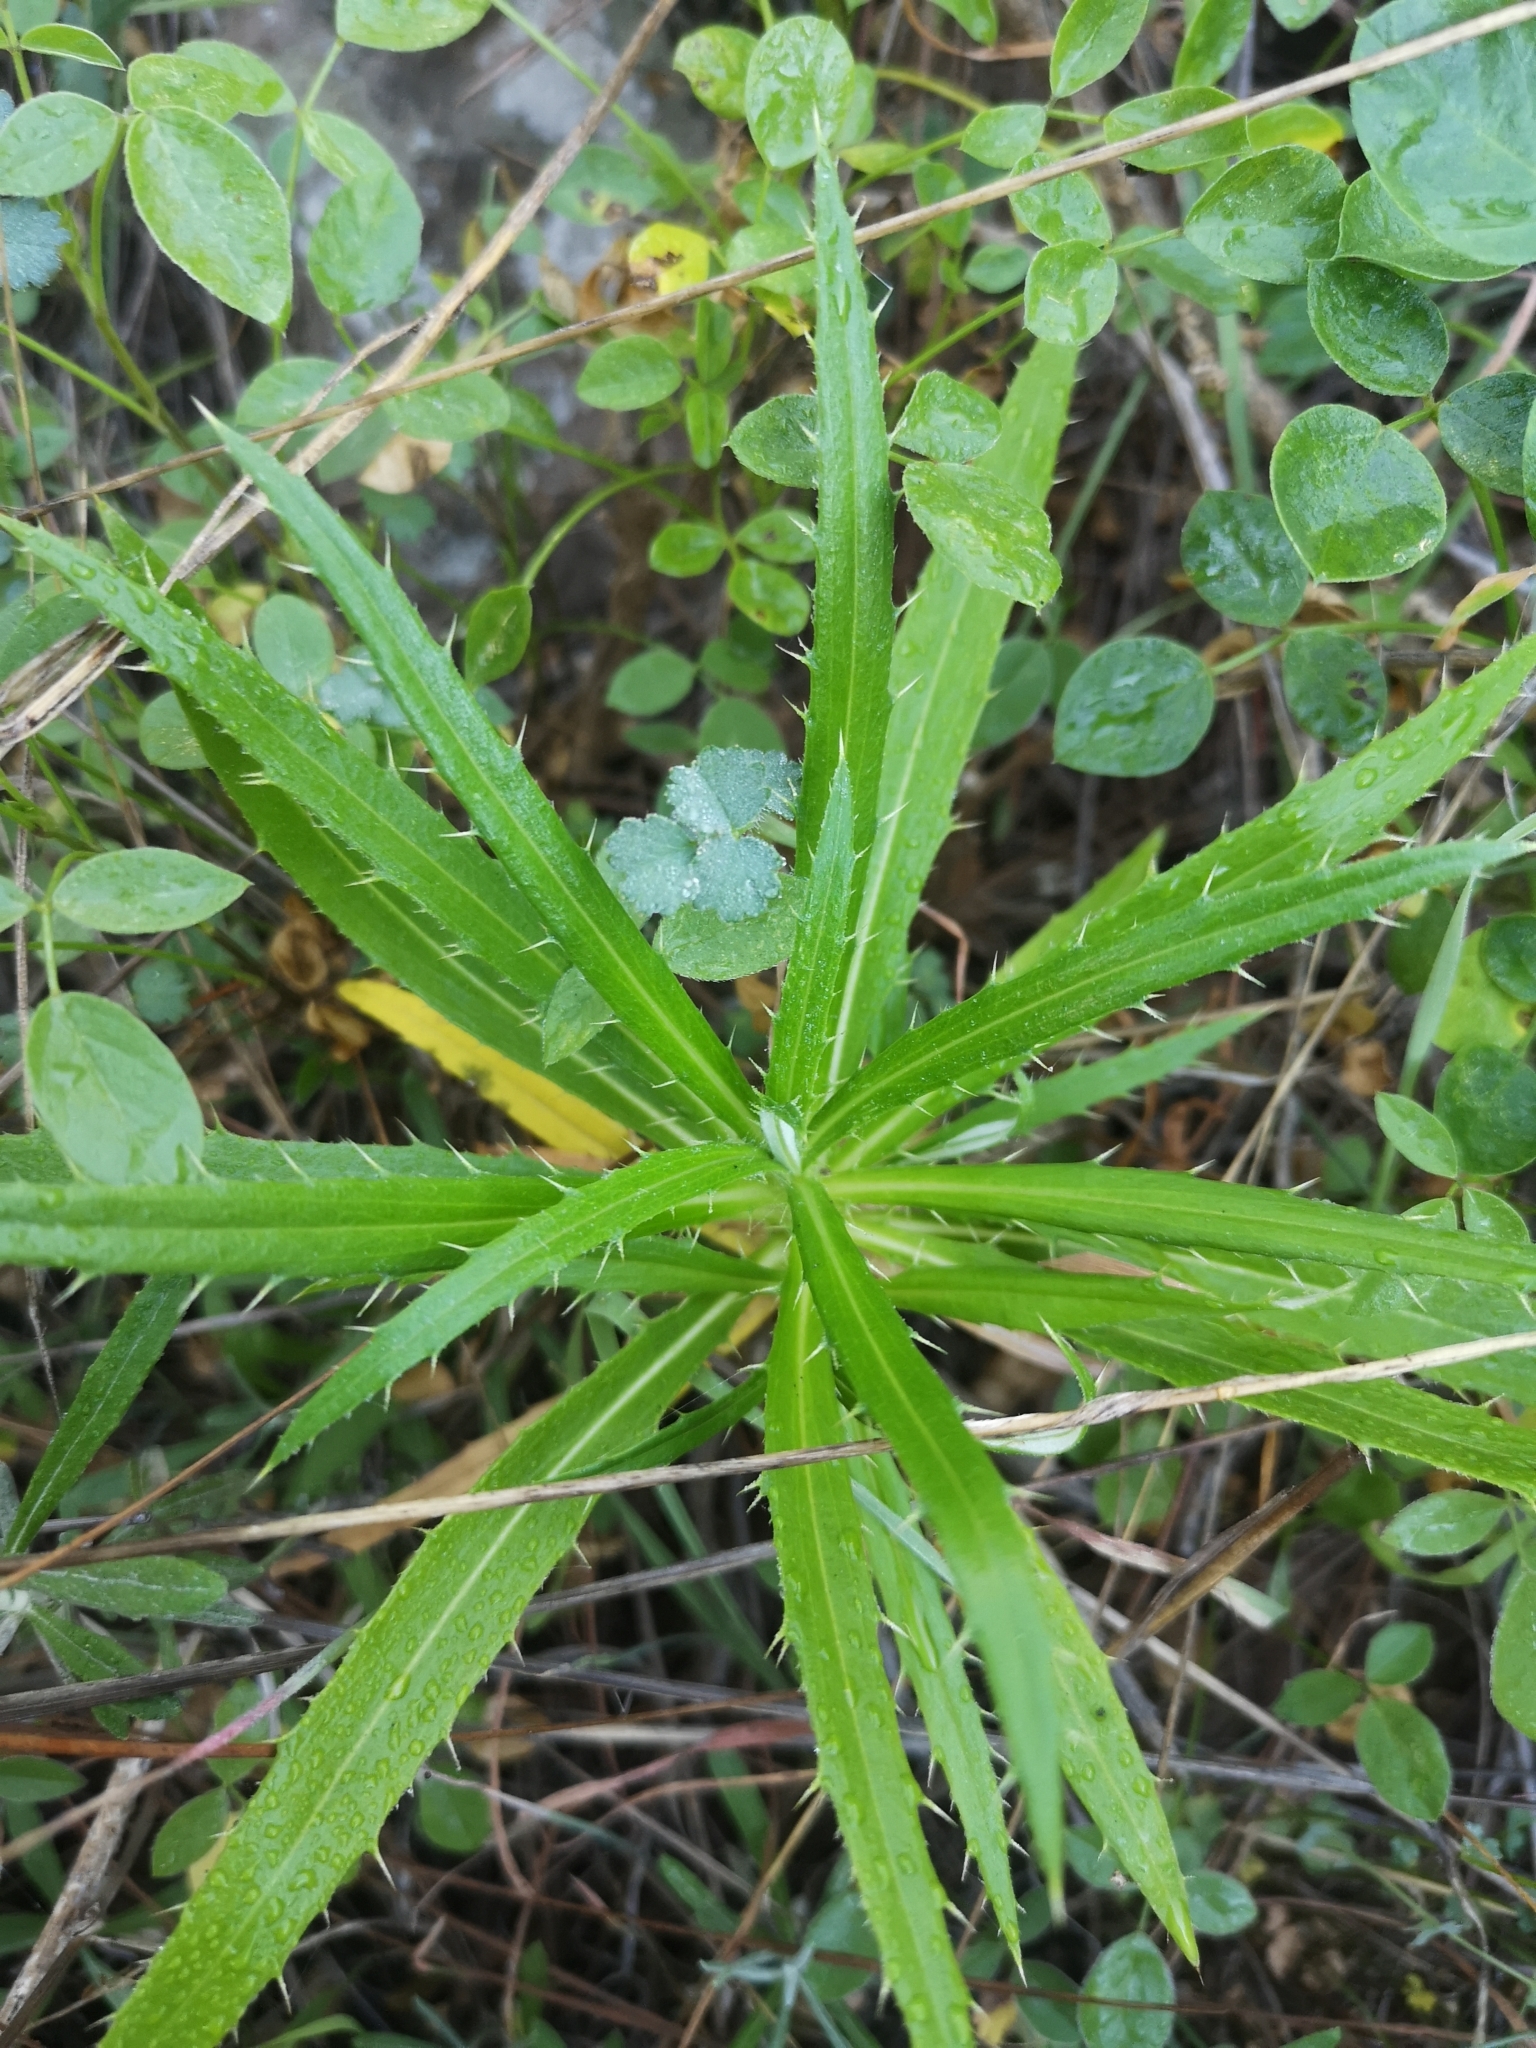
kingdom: Plantae
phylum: Tracheophyta
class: Magnoliopsida
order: Asterales
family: Asteraceae
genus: Carlina
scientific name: Carlina salicifolia
